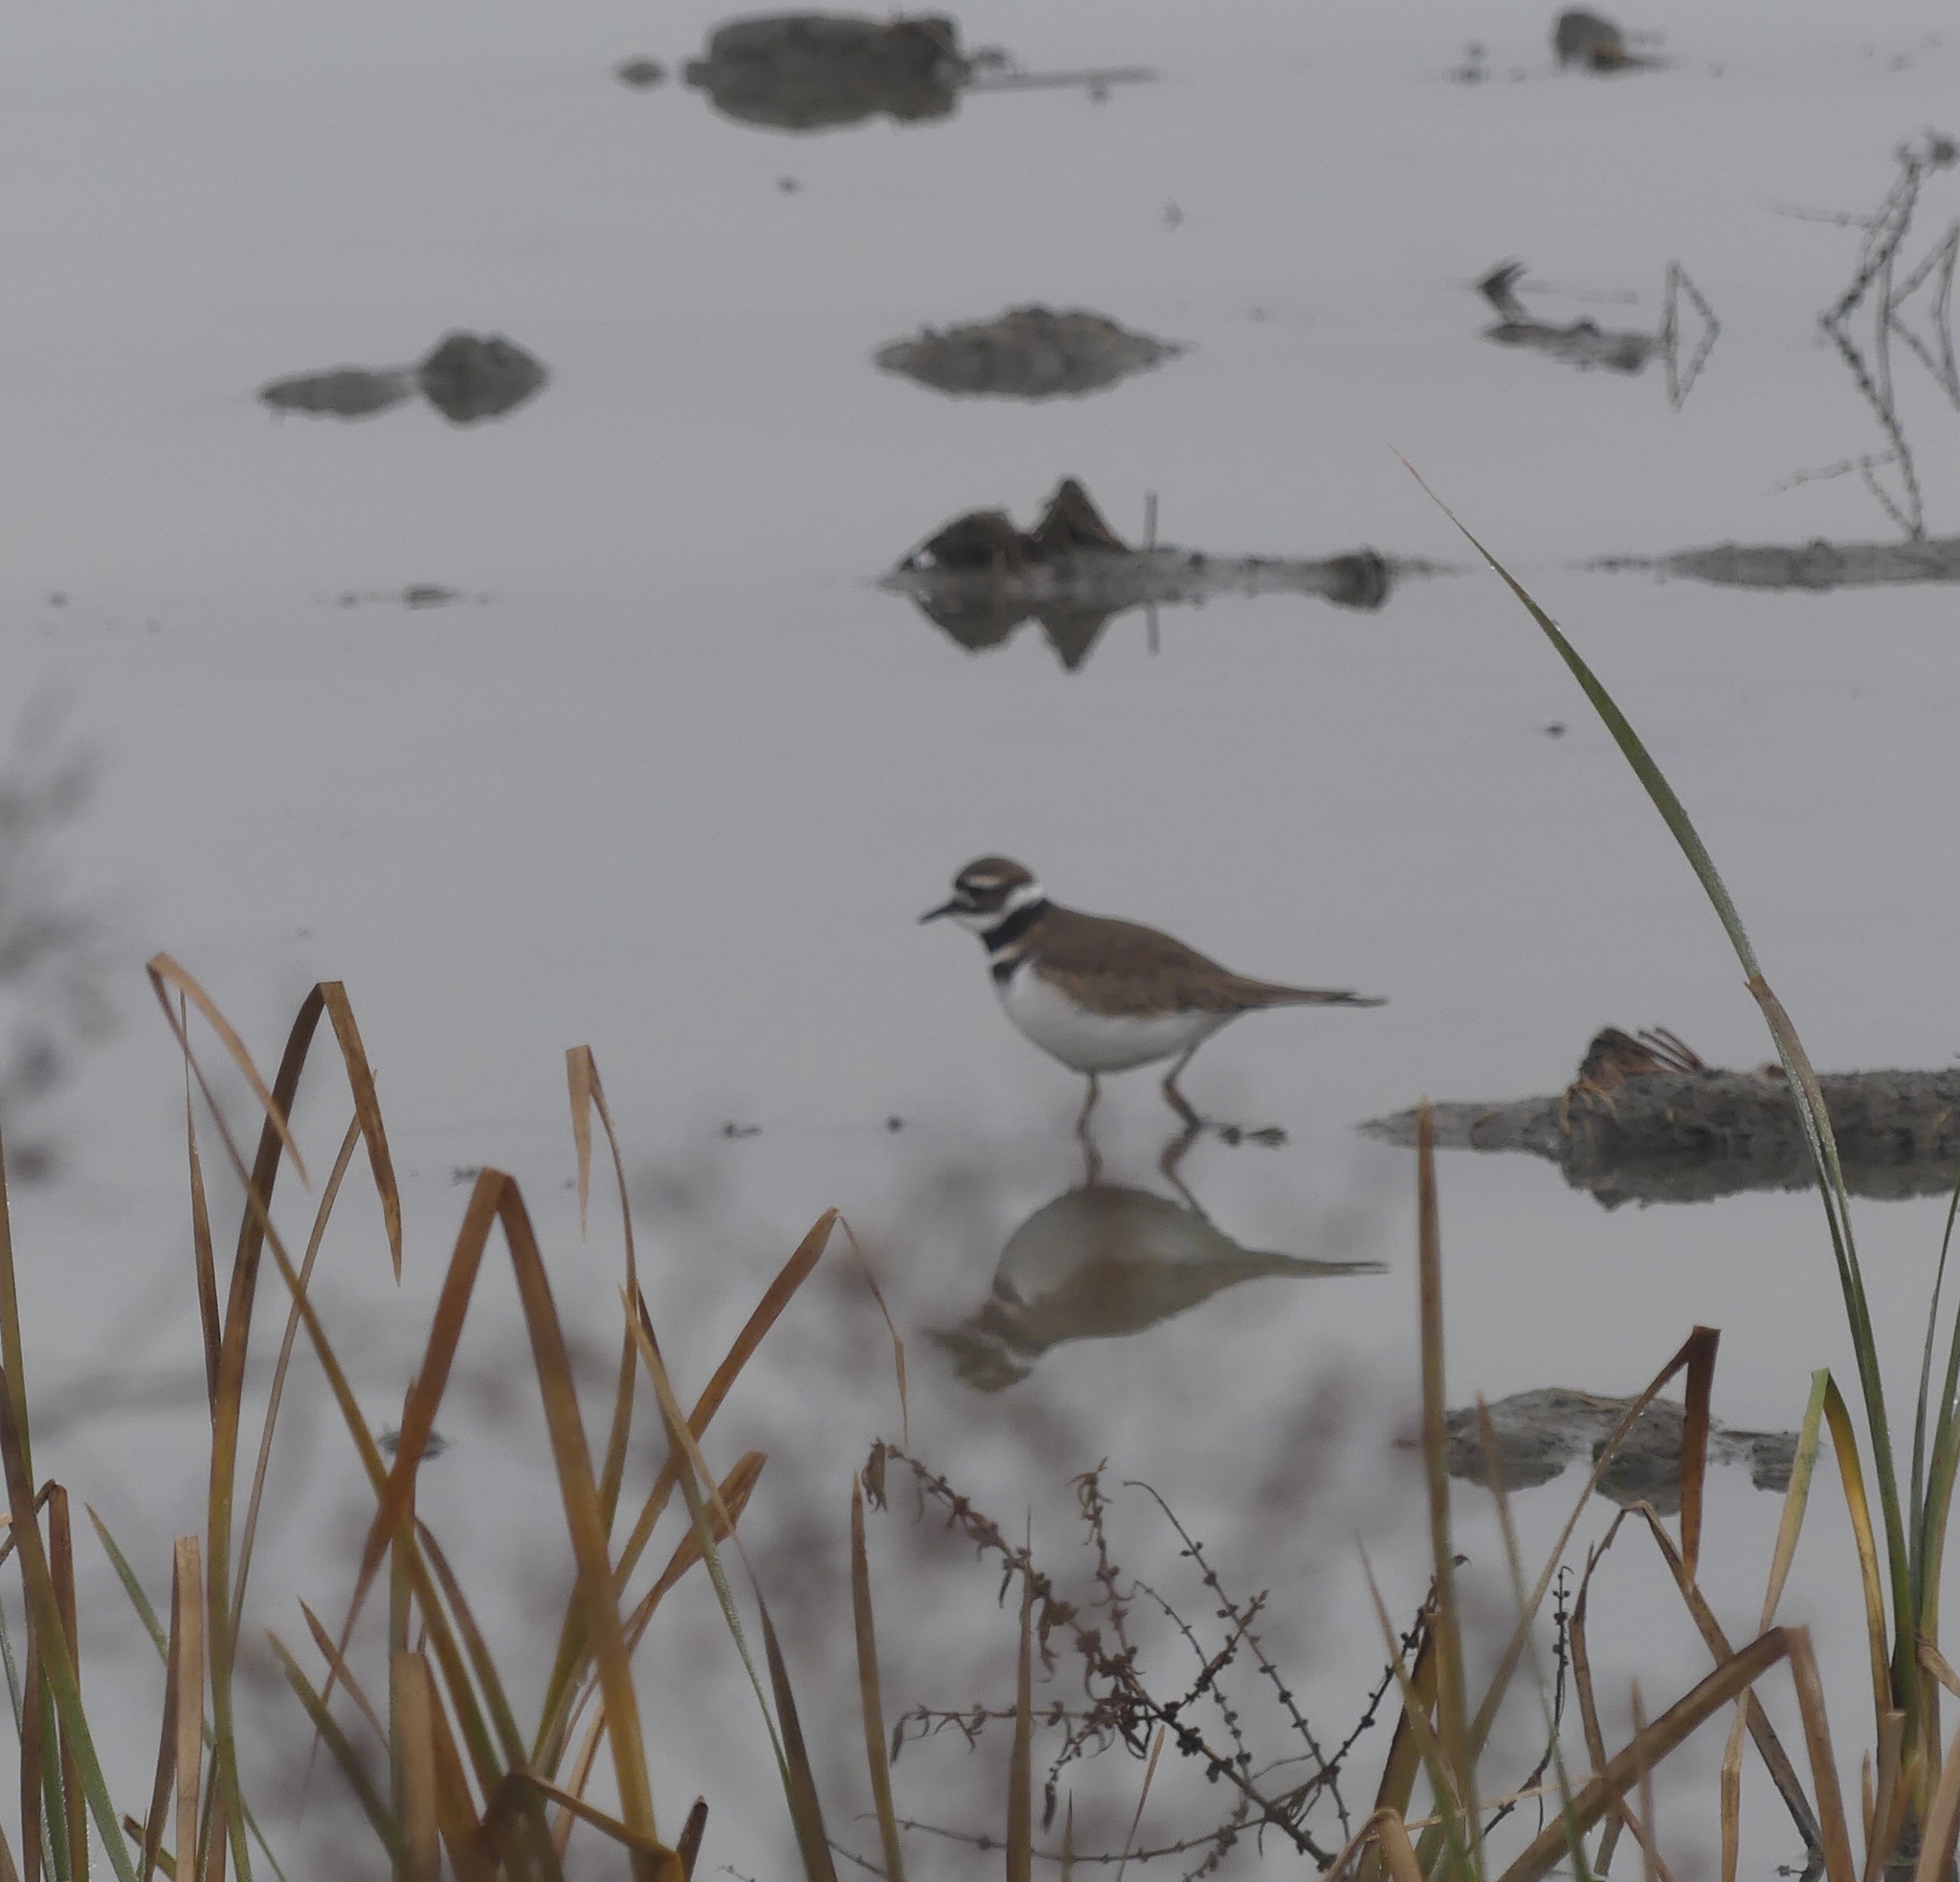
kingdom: Animalia
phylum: Chordata
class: Aves
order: Charadriiformes
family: Charadriidae
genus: Charadrius
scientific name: Charadrius vociferus
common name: Killdeer
